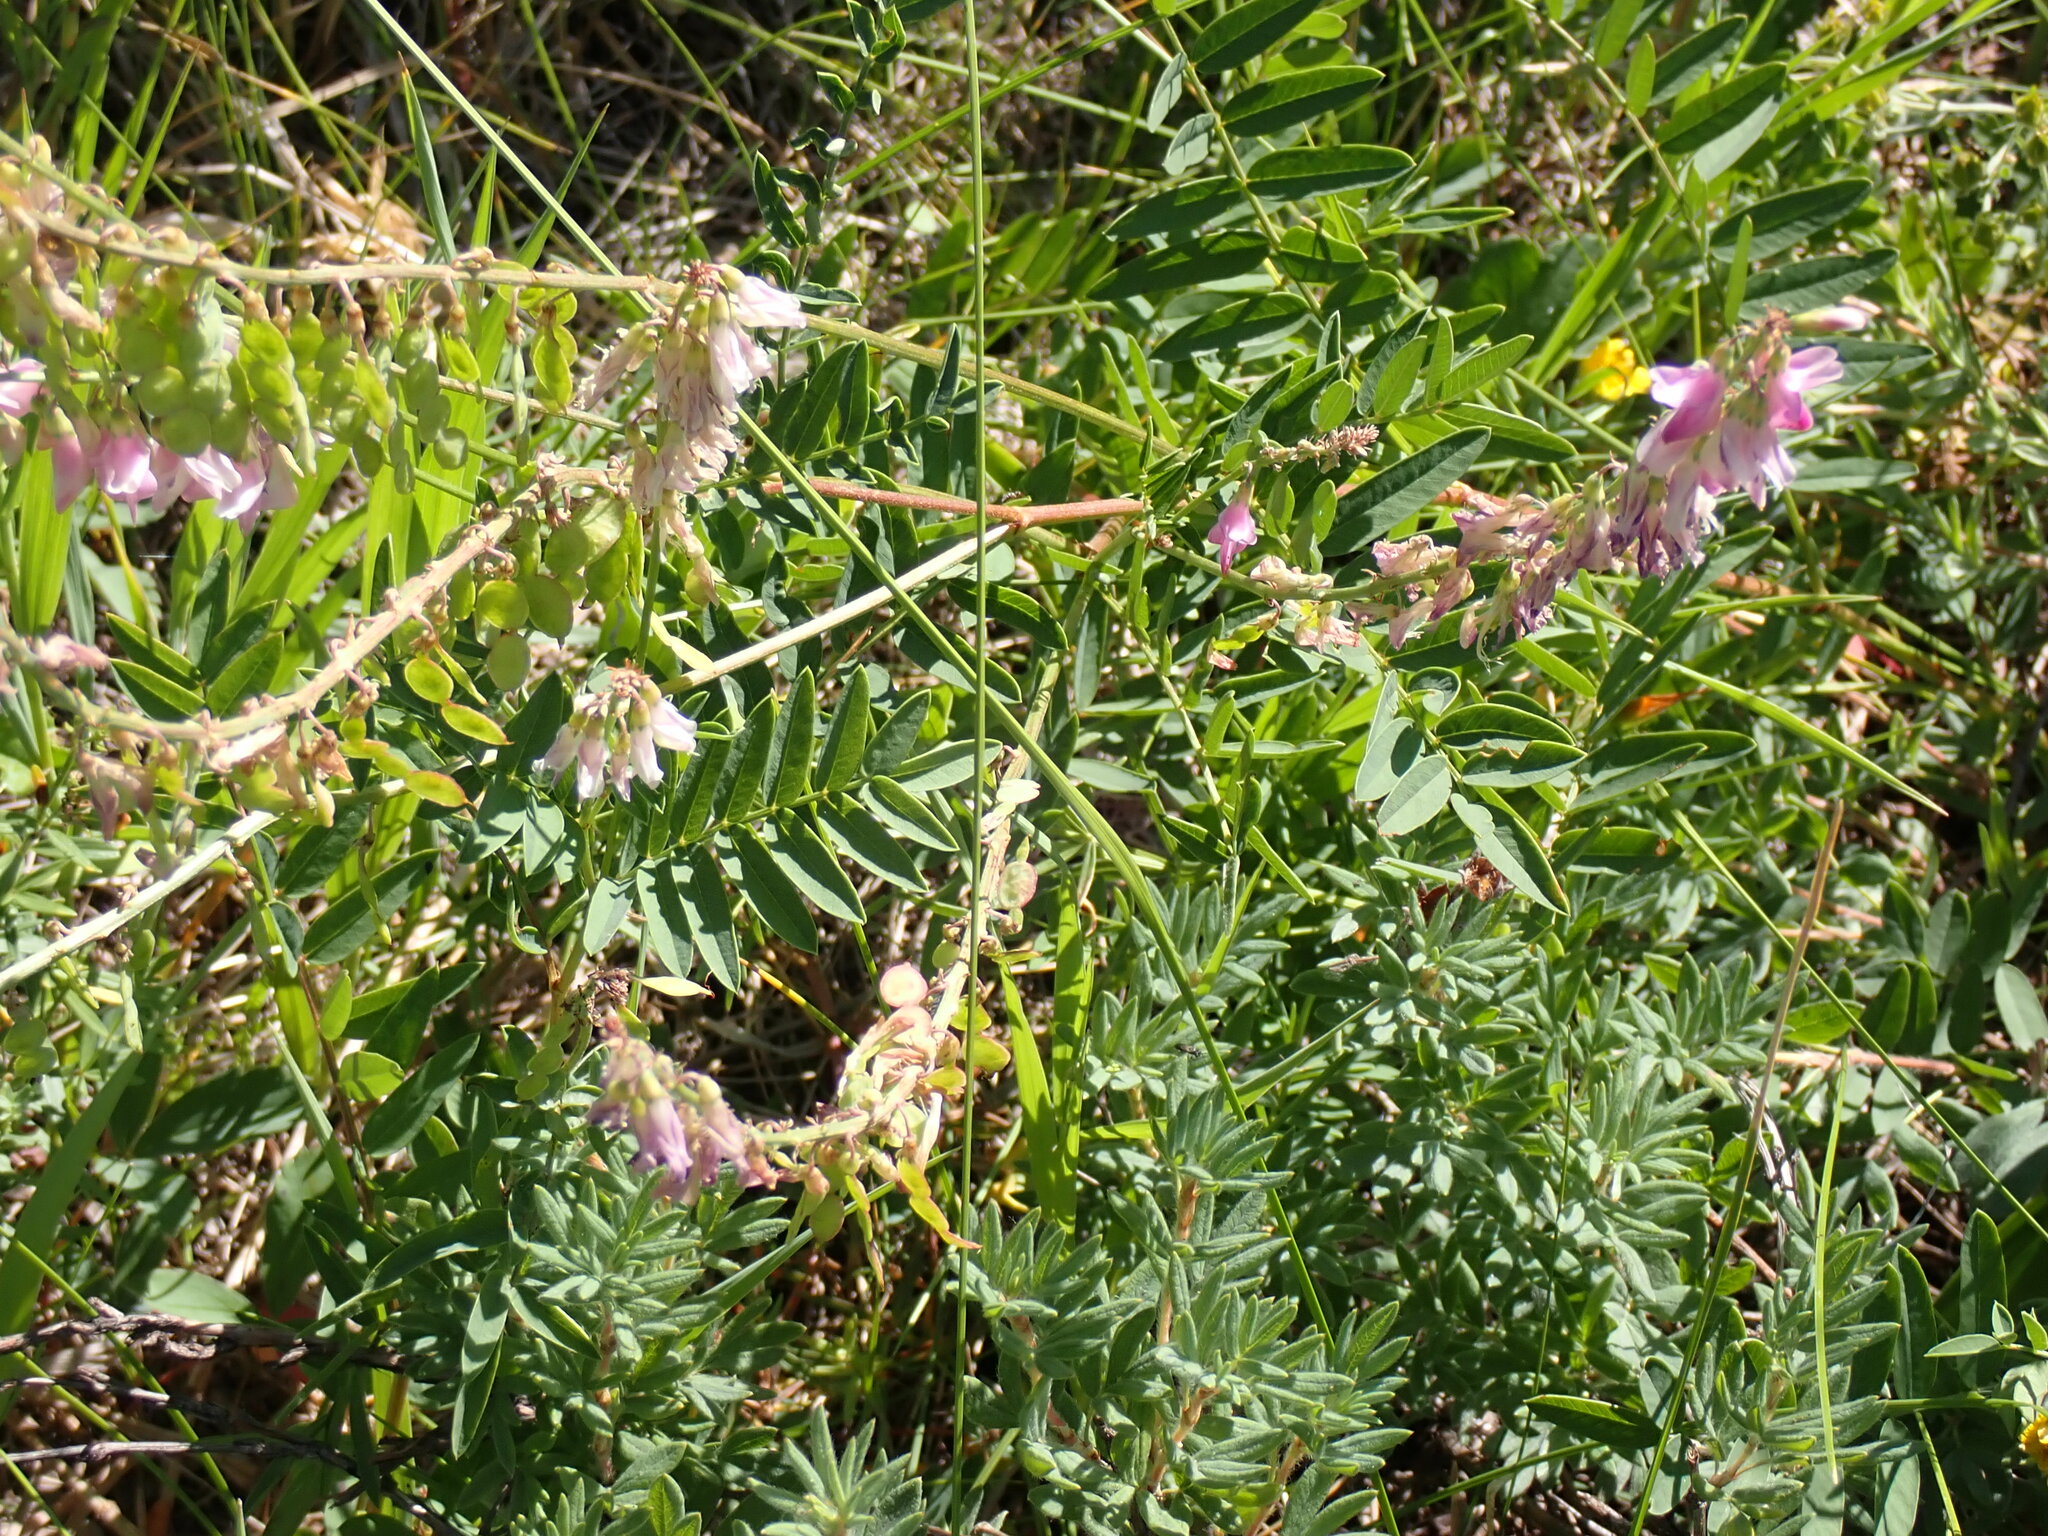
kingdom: Plantae
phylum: Tracheophyta
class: Magnoliopsida
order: Fabales
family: Fabaceae
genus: Hedysarum
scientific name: Hedysarum
